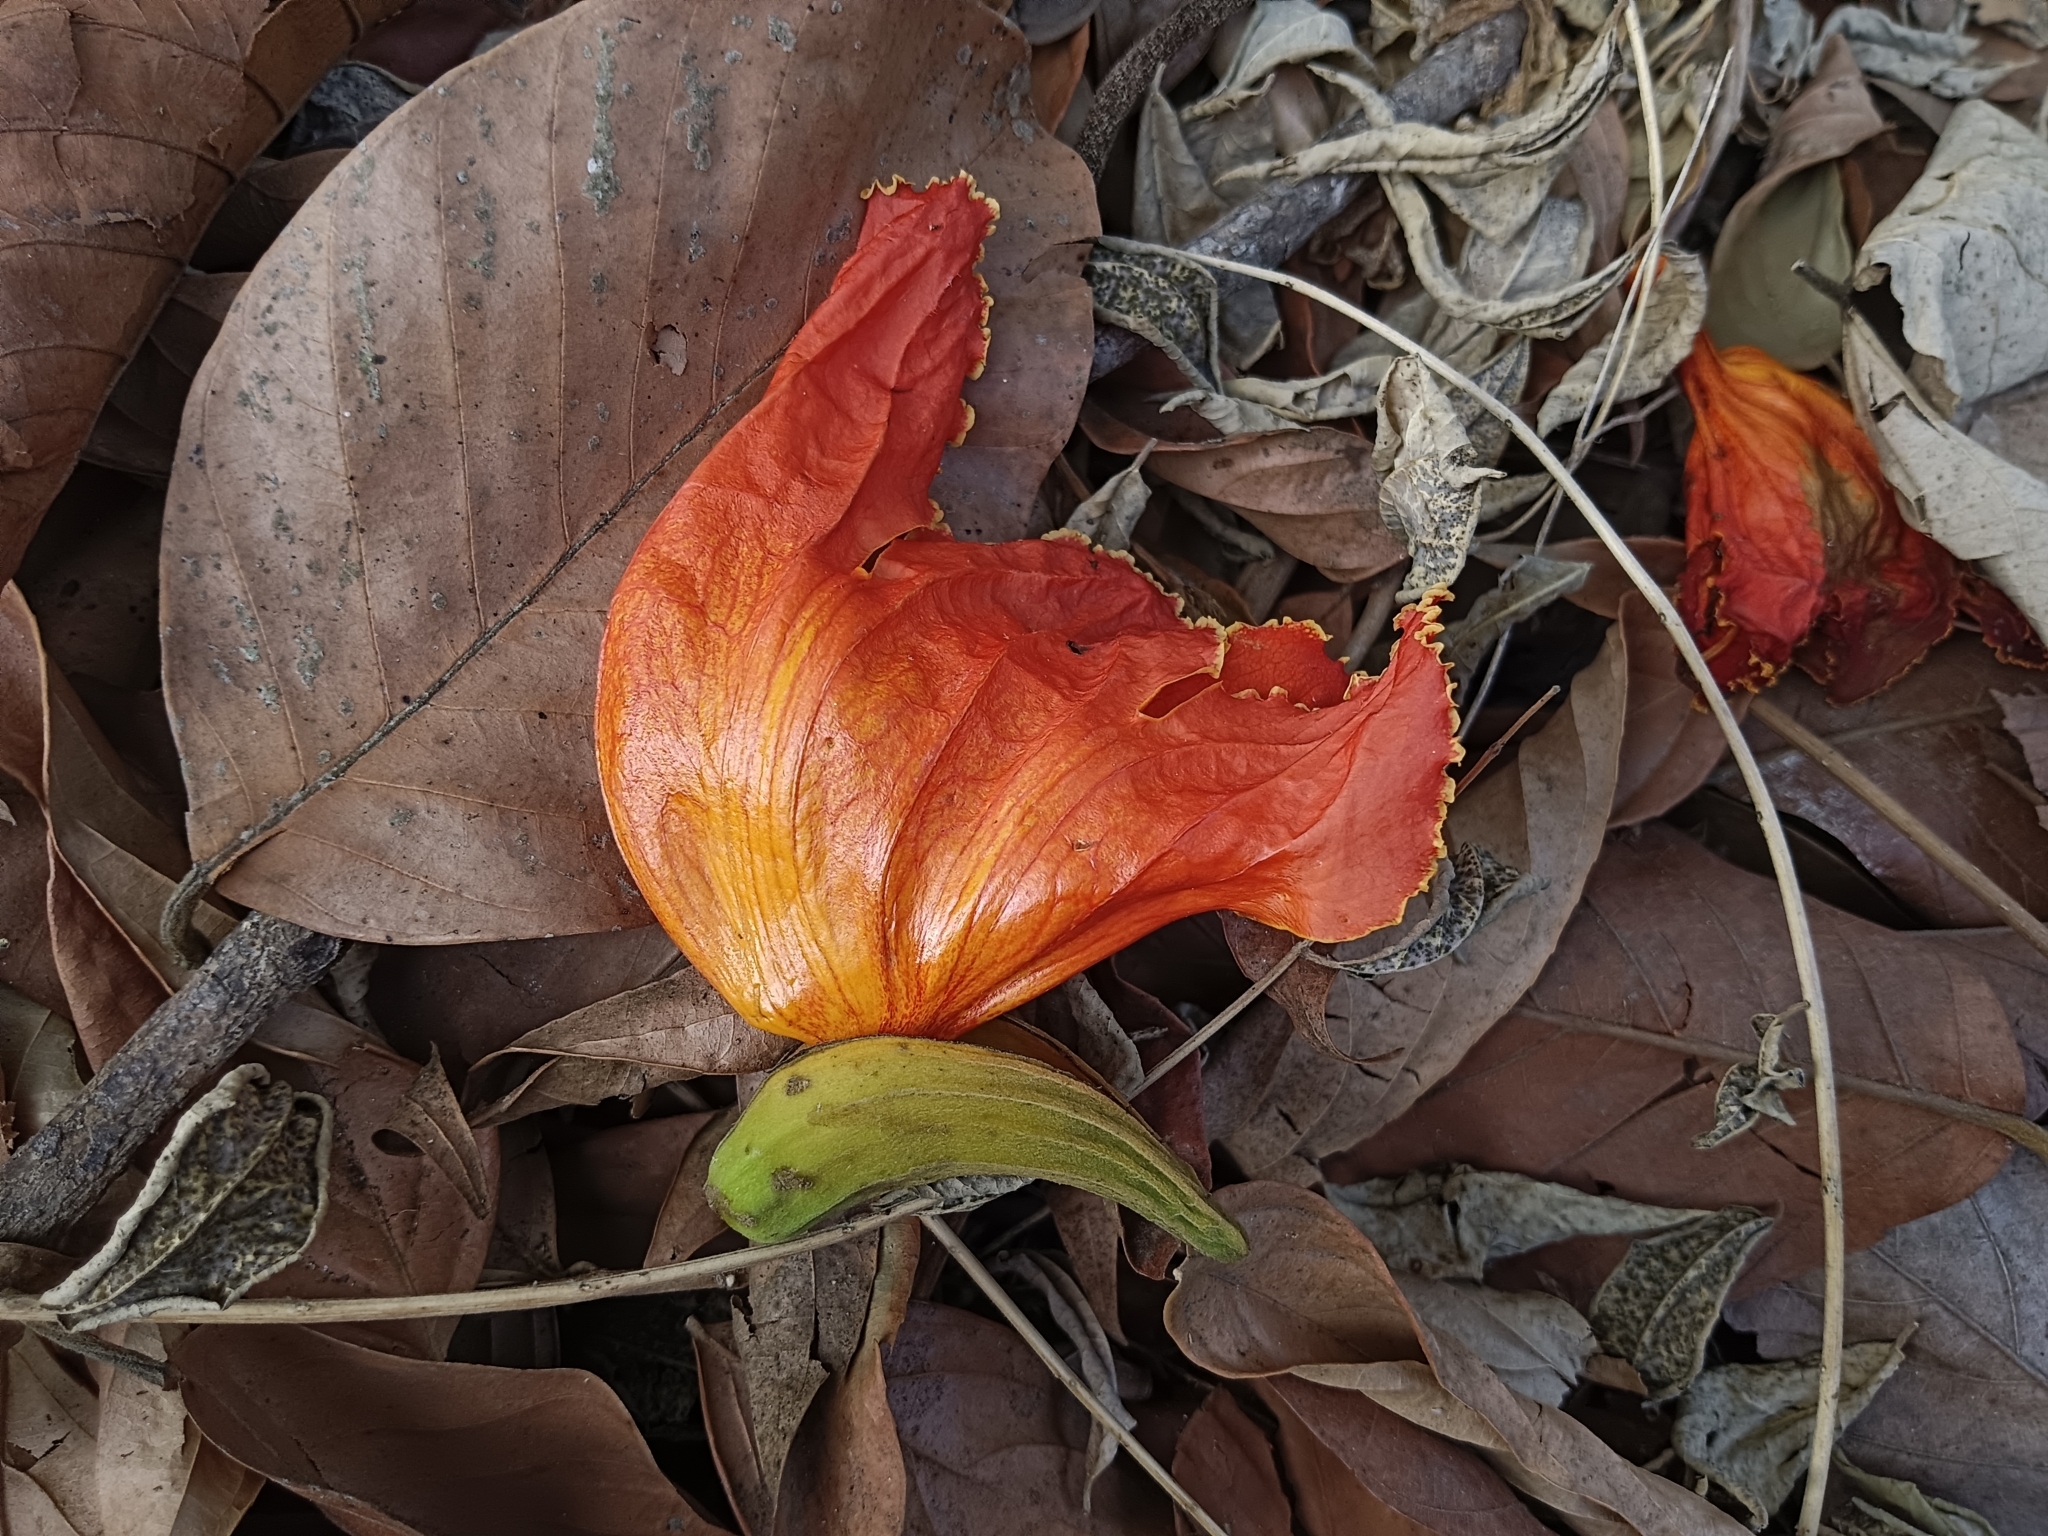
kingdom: Plantae
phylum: Tracheophyta
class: Magnoliopsida
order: Lamiales
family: Bignoniaceae
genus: Spathodea
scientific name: Spathodea campanulata
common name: African tuliptree
